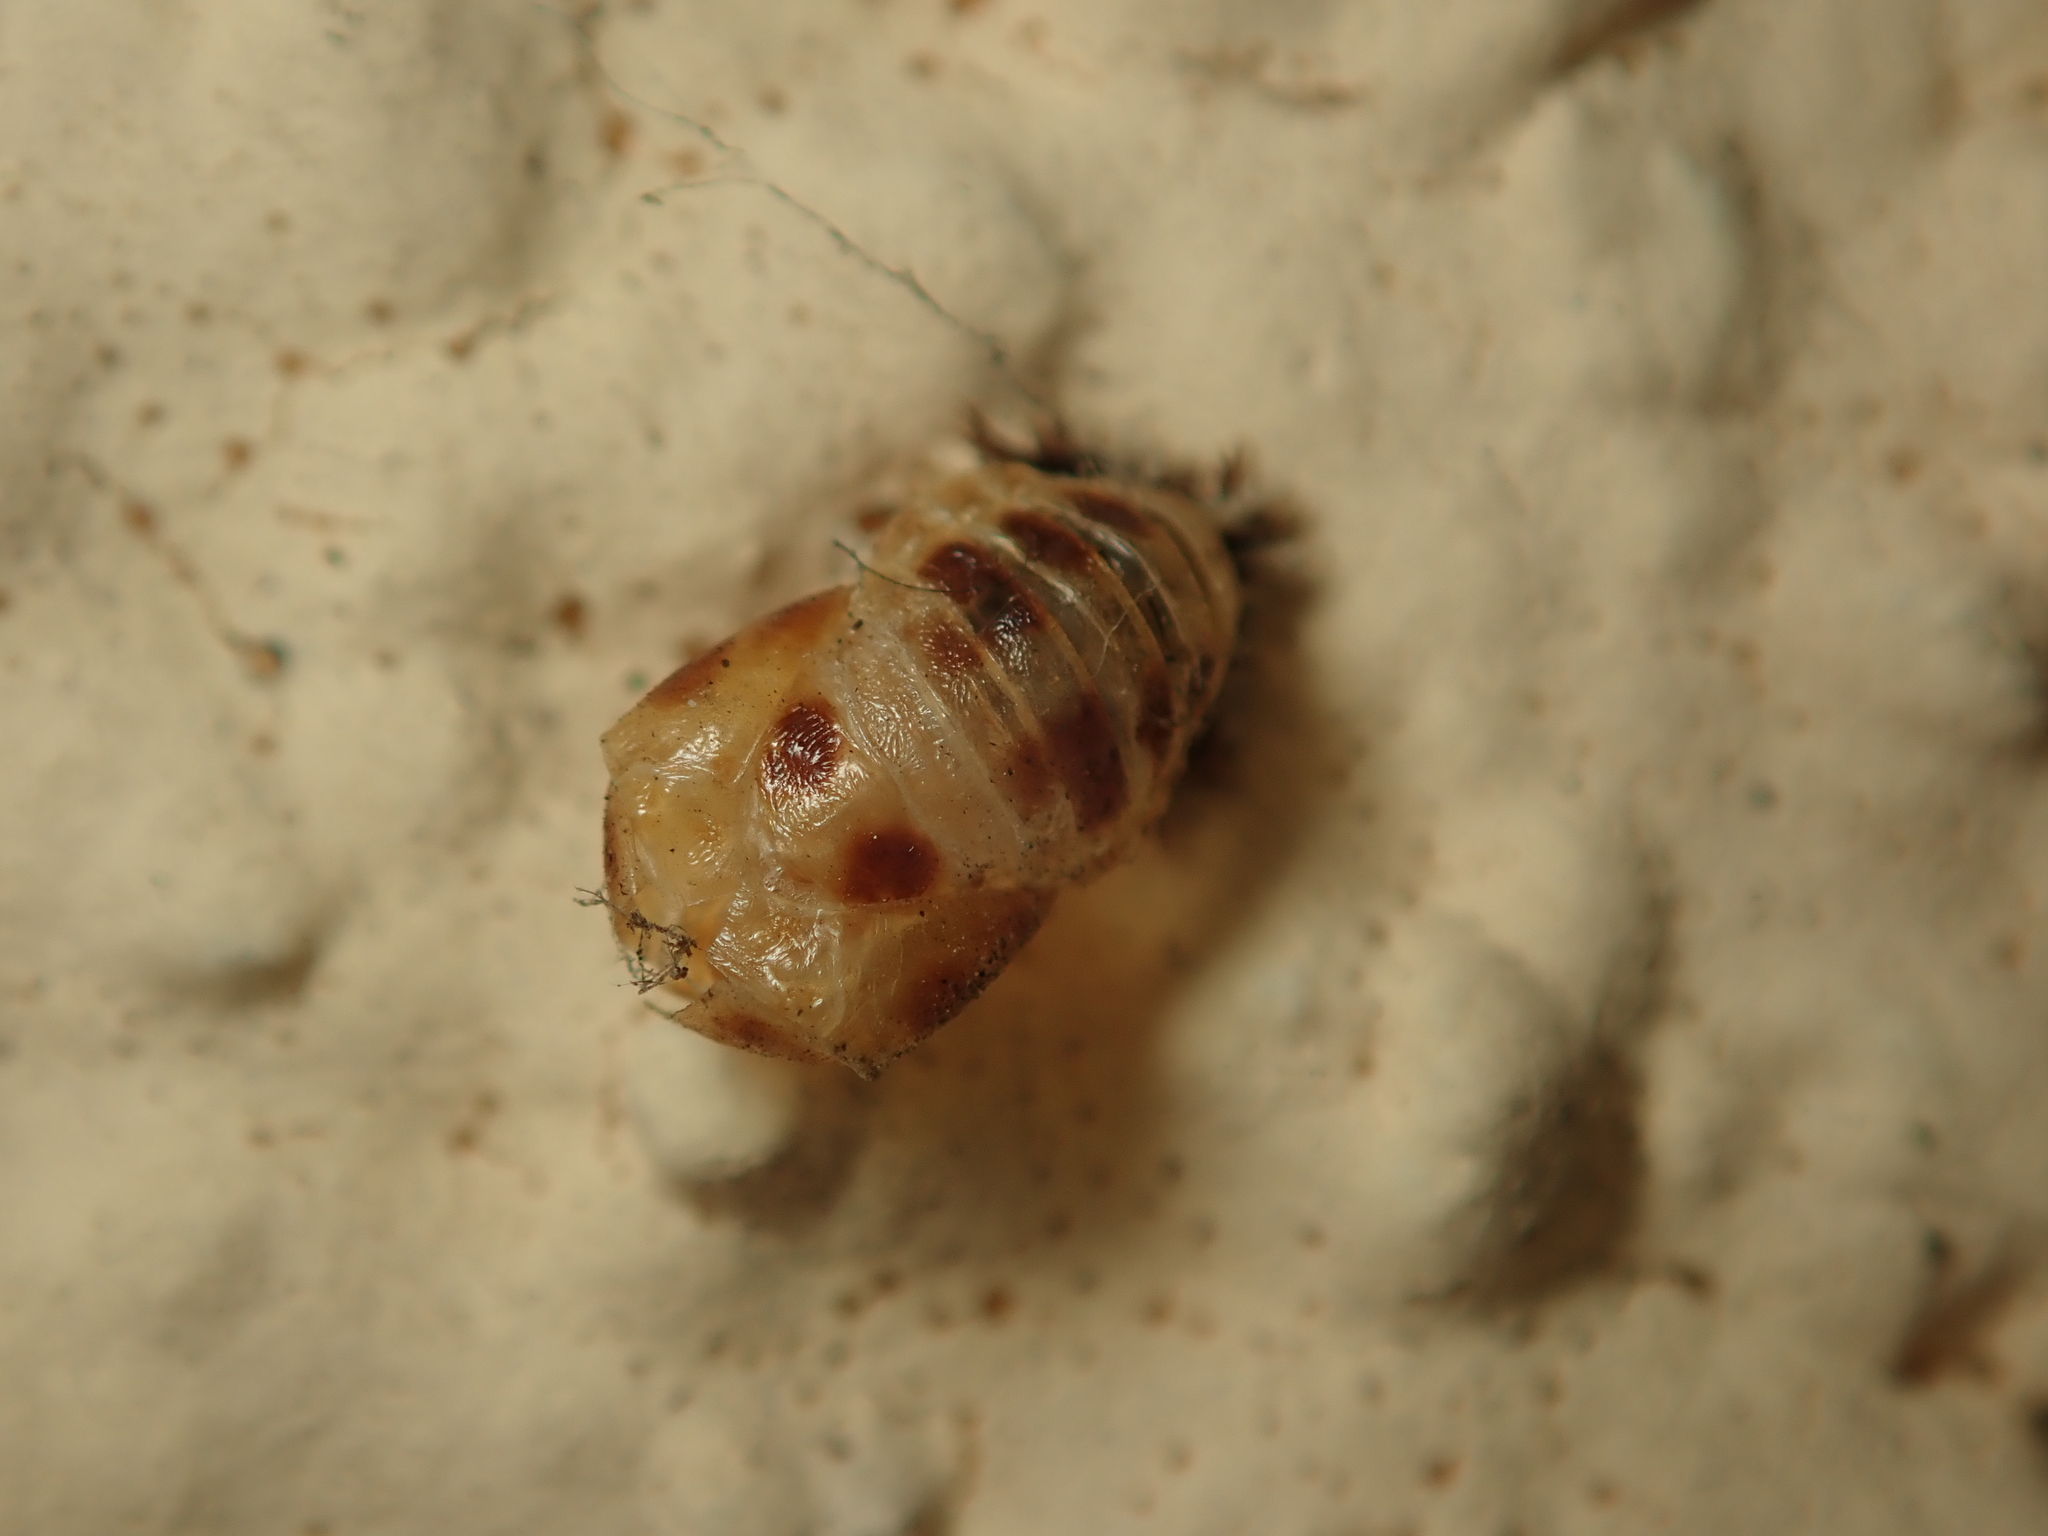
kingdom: Animalia
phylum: Arthropoda
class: Insecta
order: Coleoptera
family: Coccinellidae
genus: Harmonia
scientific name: Harmonia axyridis
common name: Harlequin ladybird
